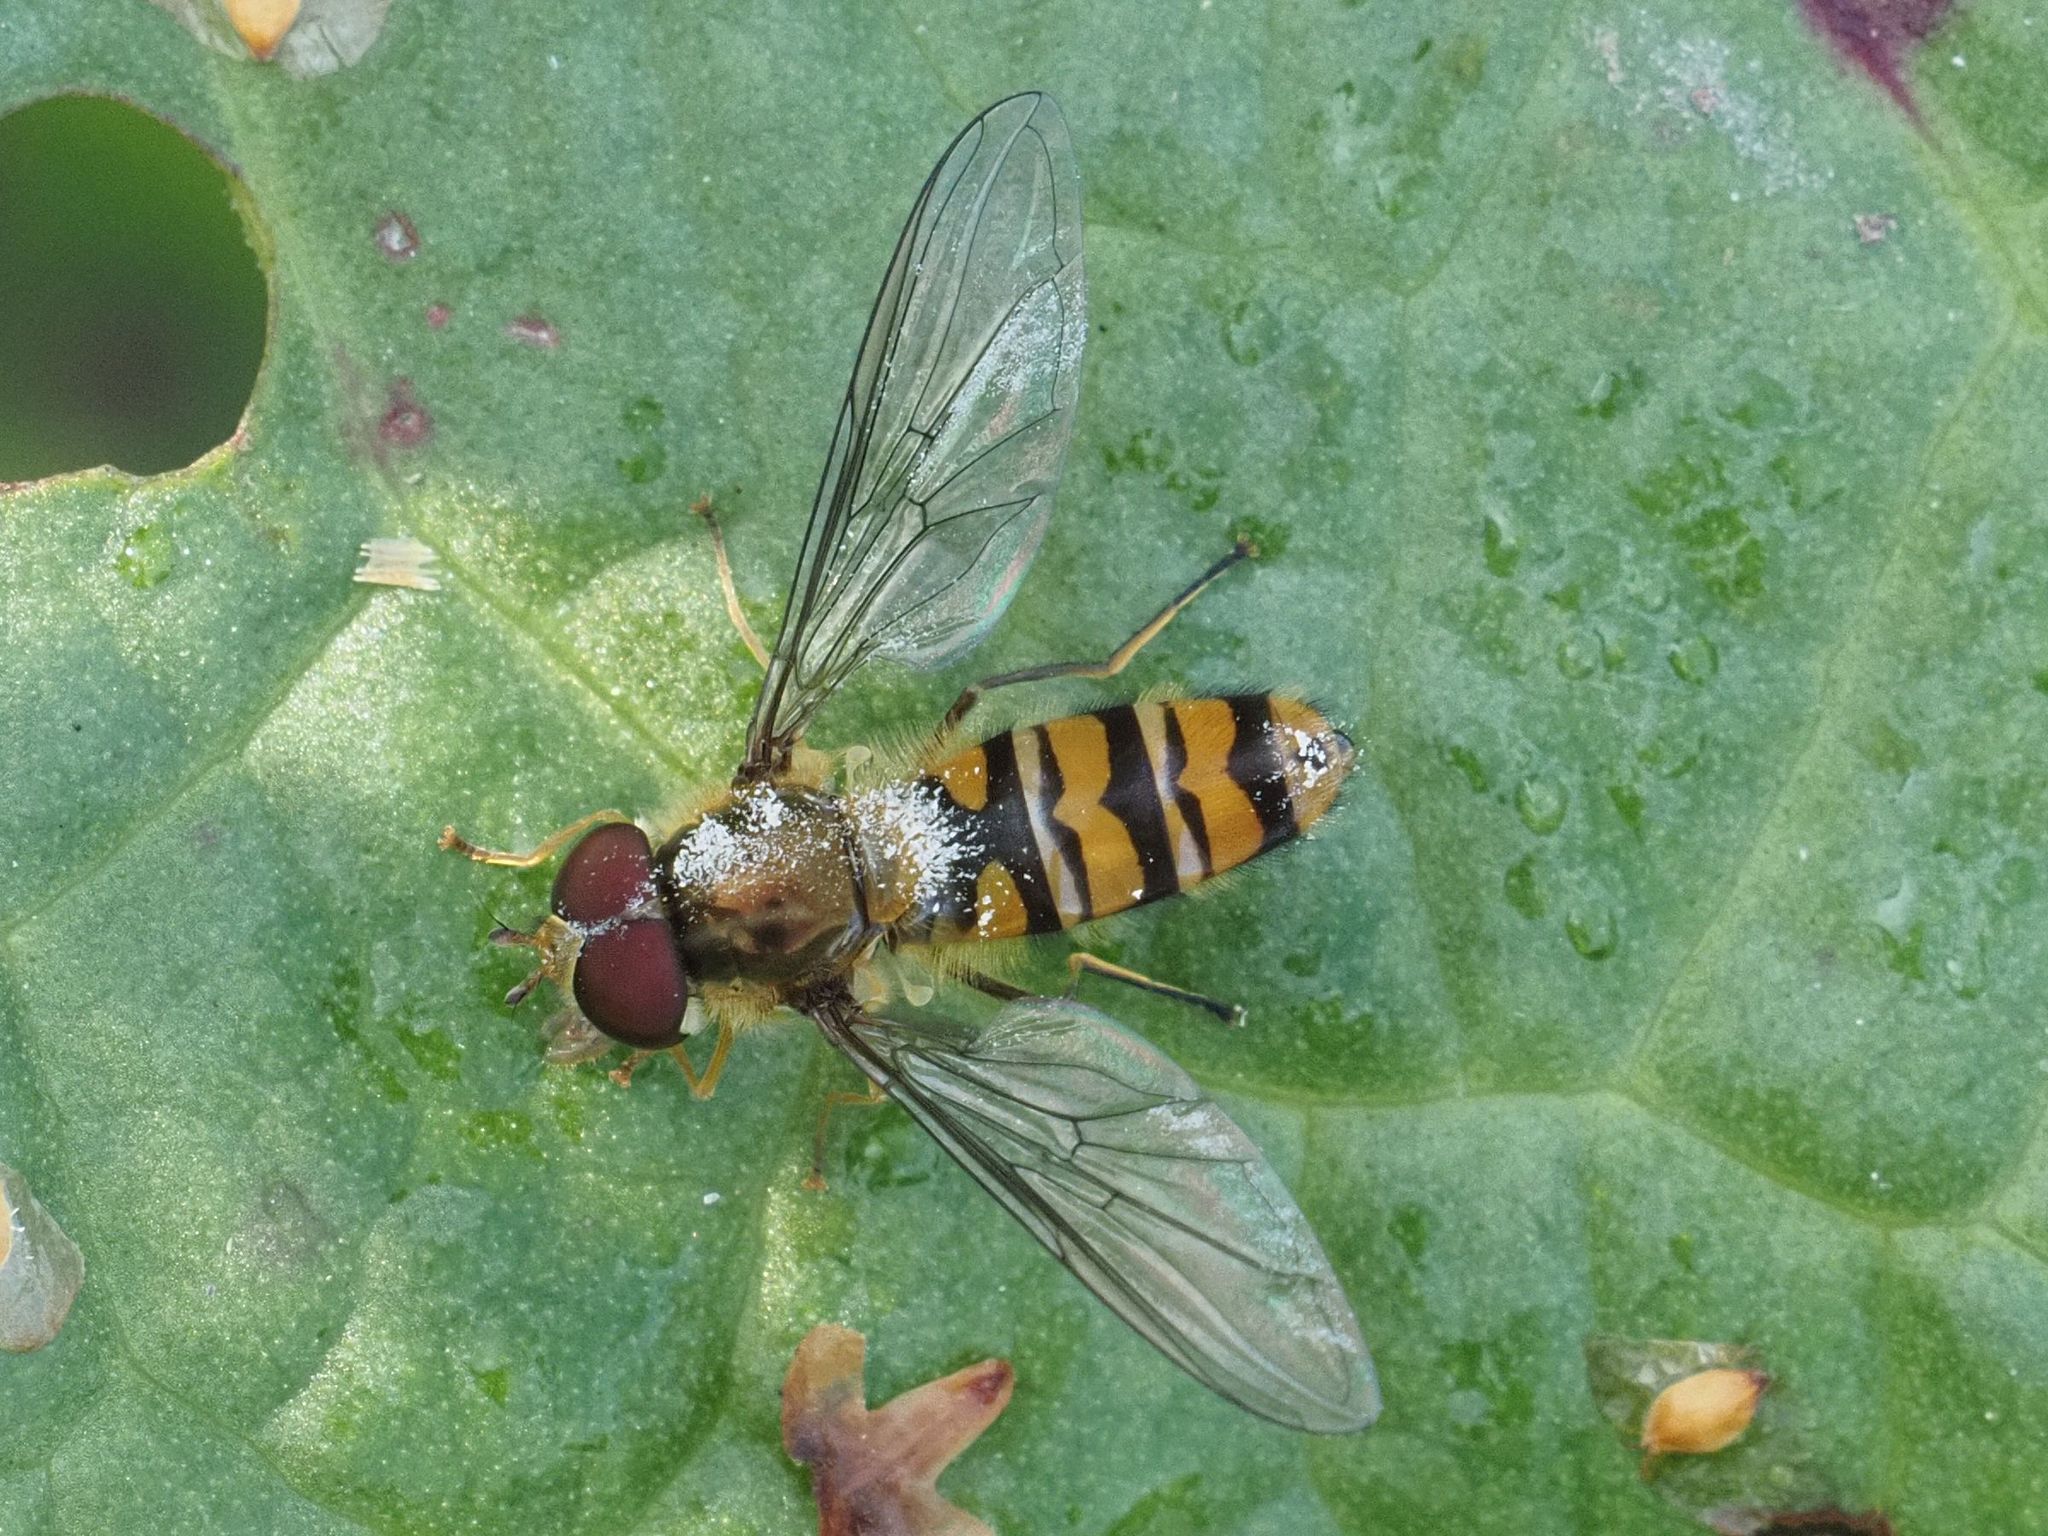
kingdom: Animalia
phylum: Arthropoda
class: Insecta
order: Diptera
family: Syrphidae
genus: Episyrphus
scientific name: Episyrphus balteatus
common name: Marmalade hoverfly
